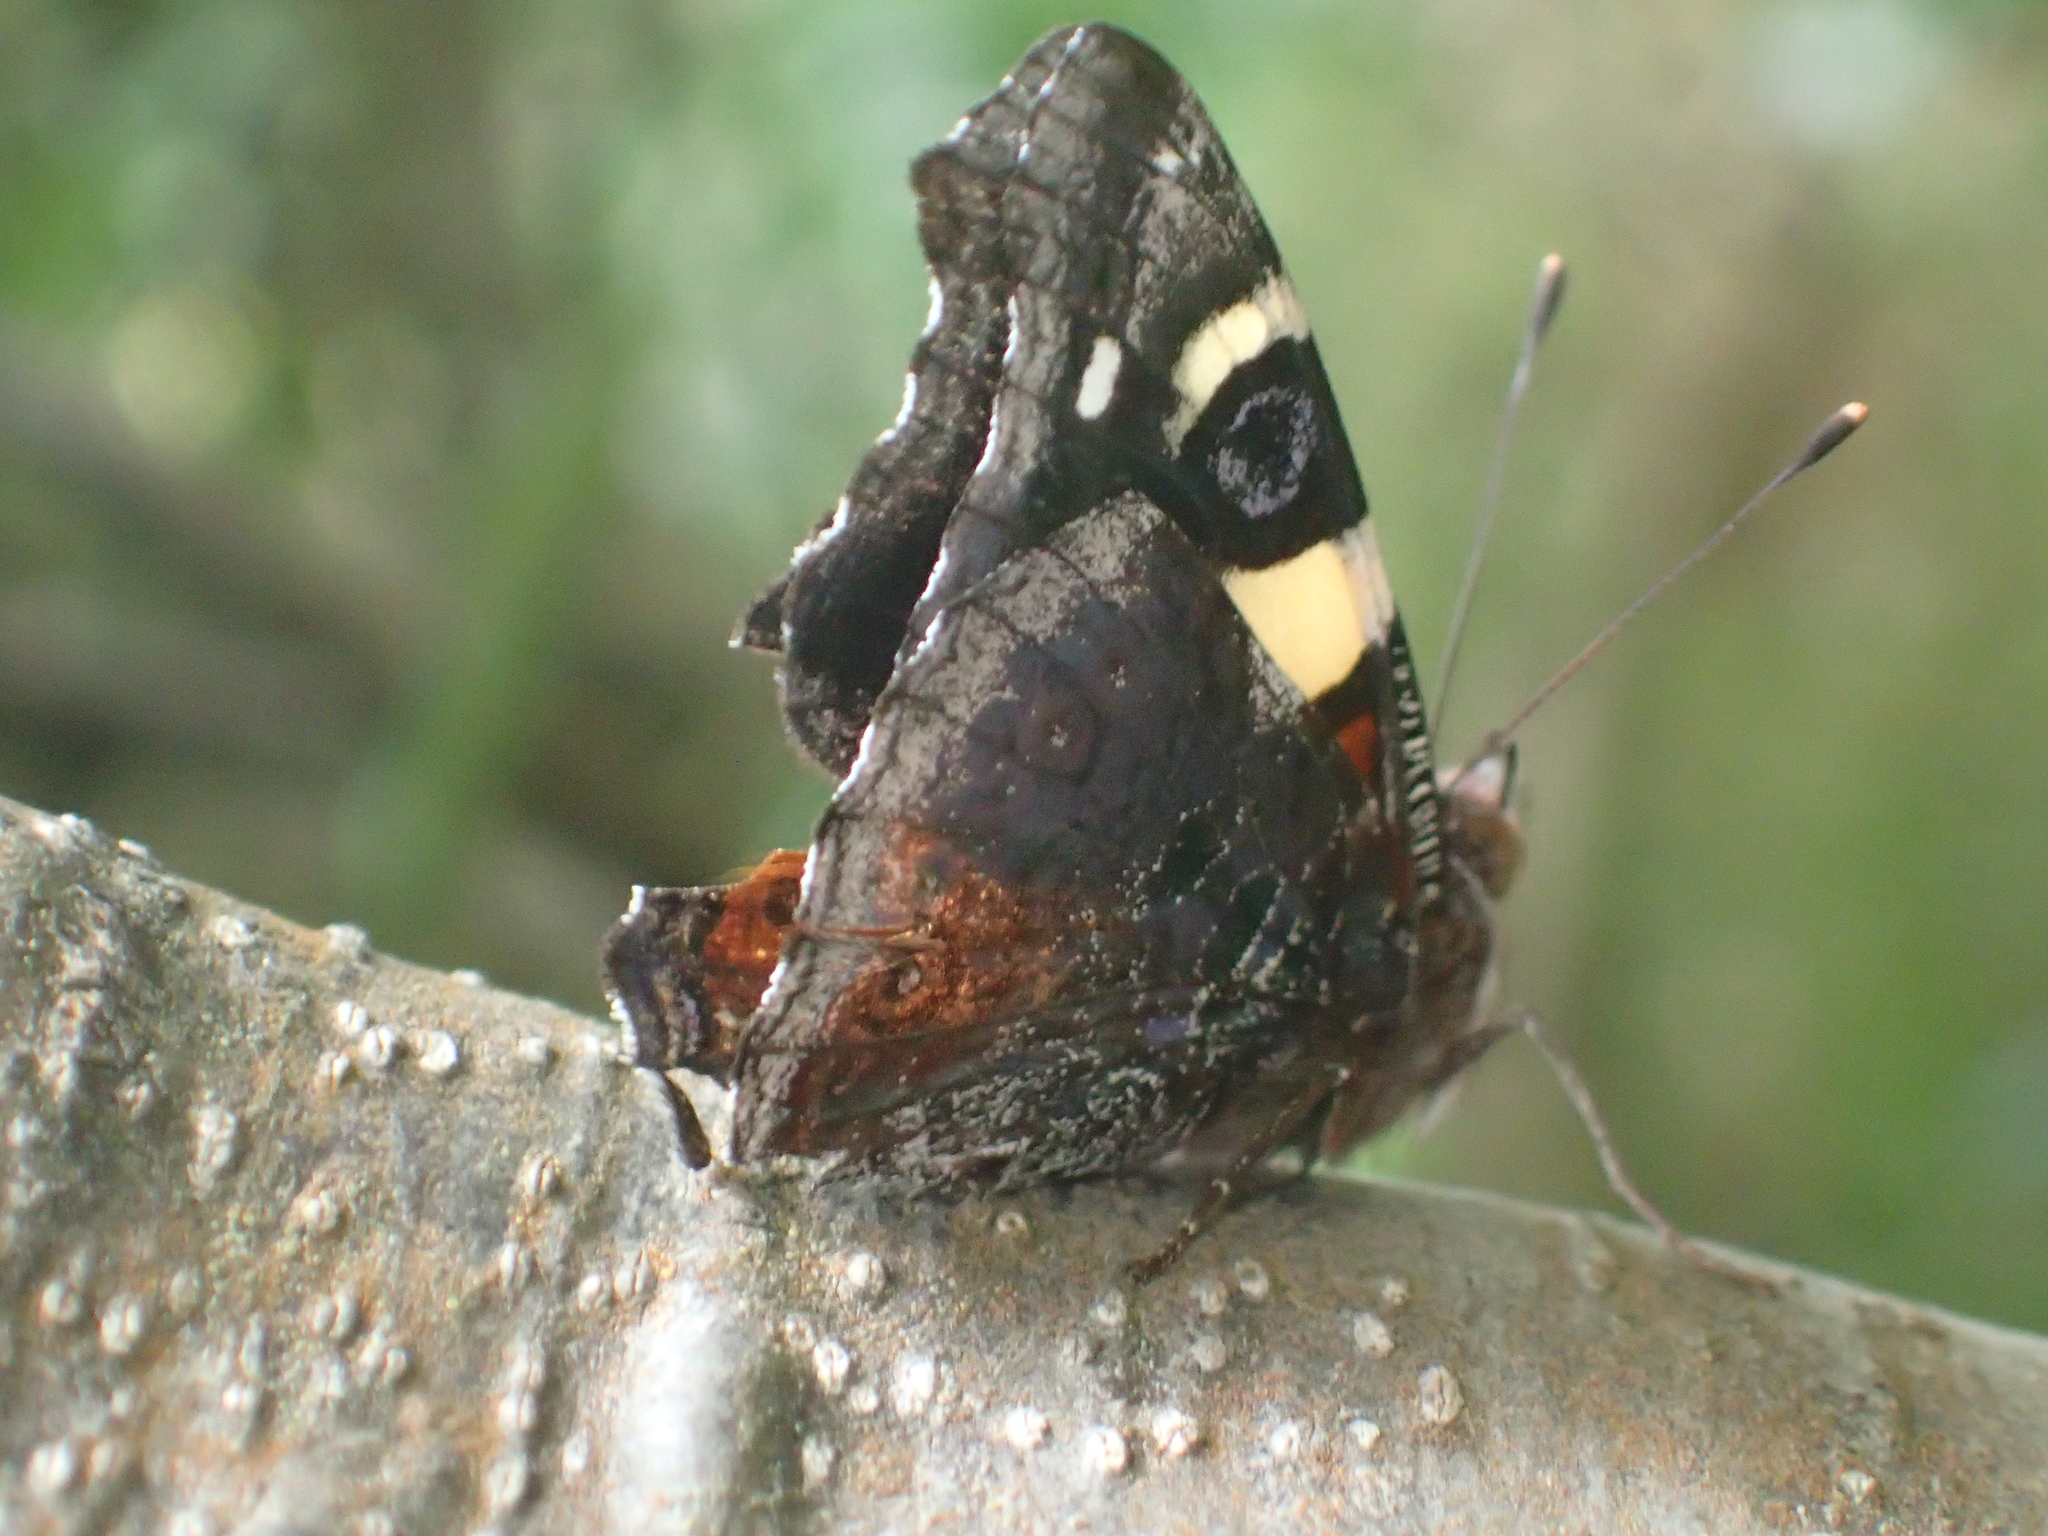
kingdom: Animalia
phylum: Arthropoda
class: Insecta
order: Lepidoptera
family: Nymphalidae
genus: Vanessa
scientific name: Vanessa itea
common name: Yellow admiral
